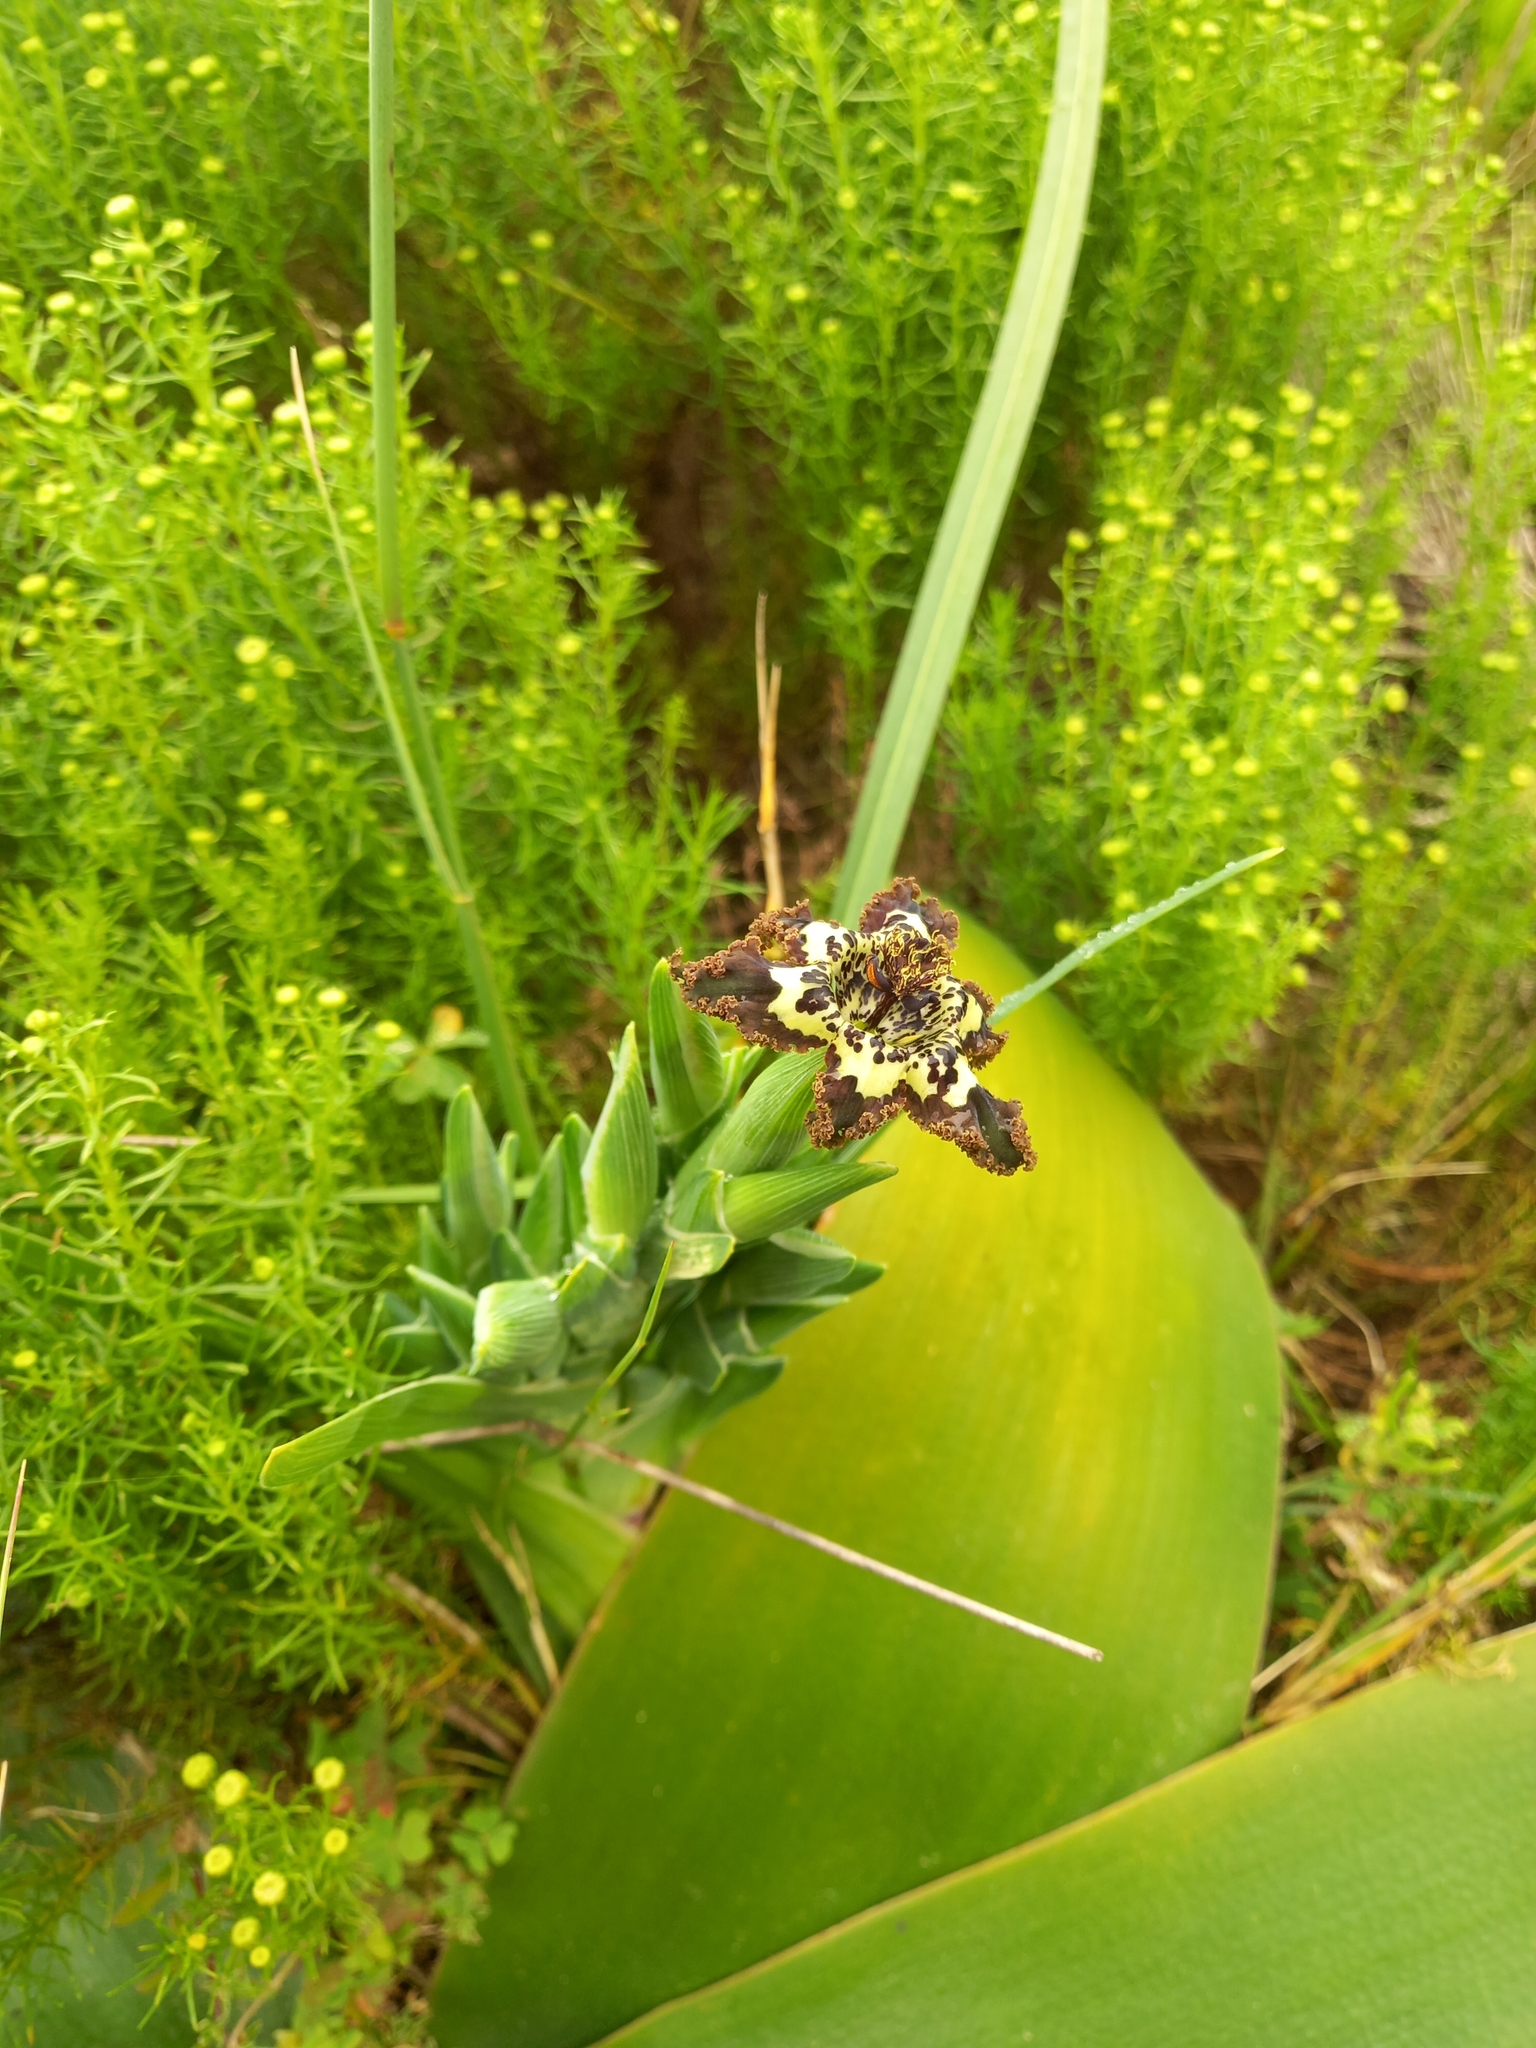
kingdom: Plantae
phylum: Tracheophyta
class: Liliopsida
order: Asparagales
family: Iridaceae
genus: Ferraria
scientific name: Ferraria crispa
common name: Black-flag
